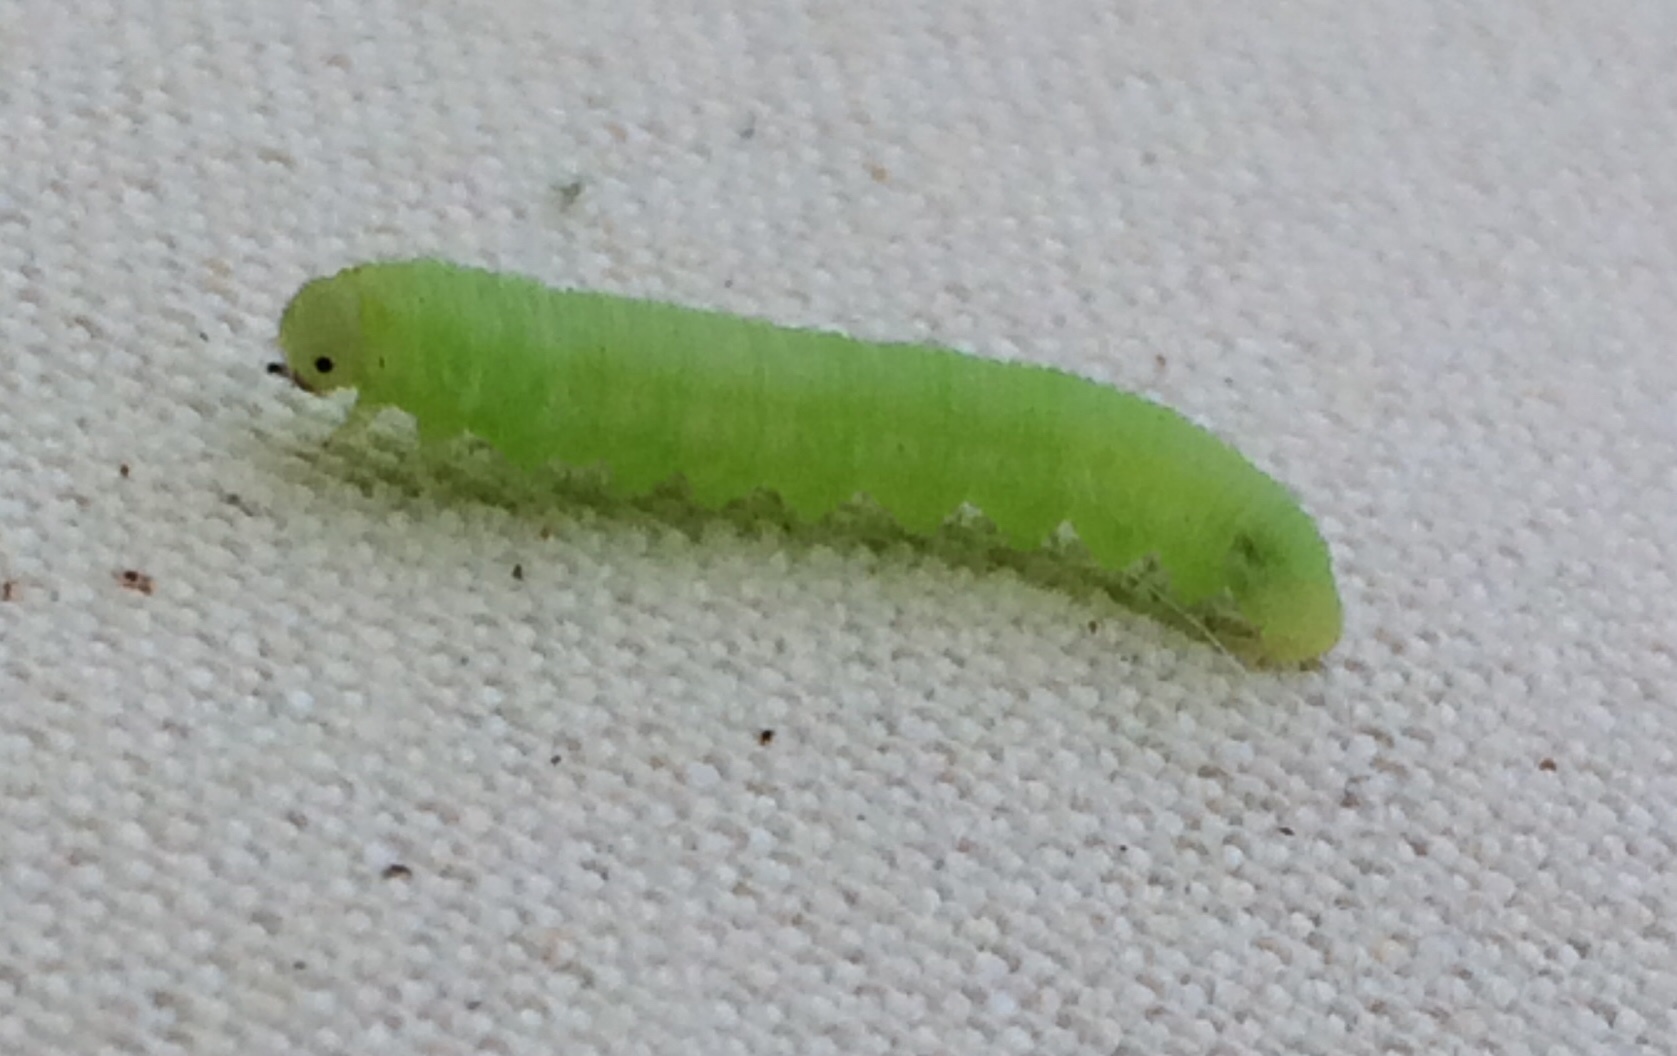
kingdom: Animalia
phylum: Arthropoda
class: Insecta
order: Hymenoptera
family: Tenthredinidae
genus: Monsoma
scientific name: Monsoma pulveratum
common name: Green alder sawfly
